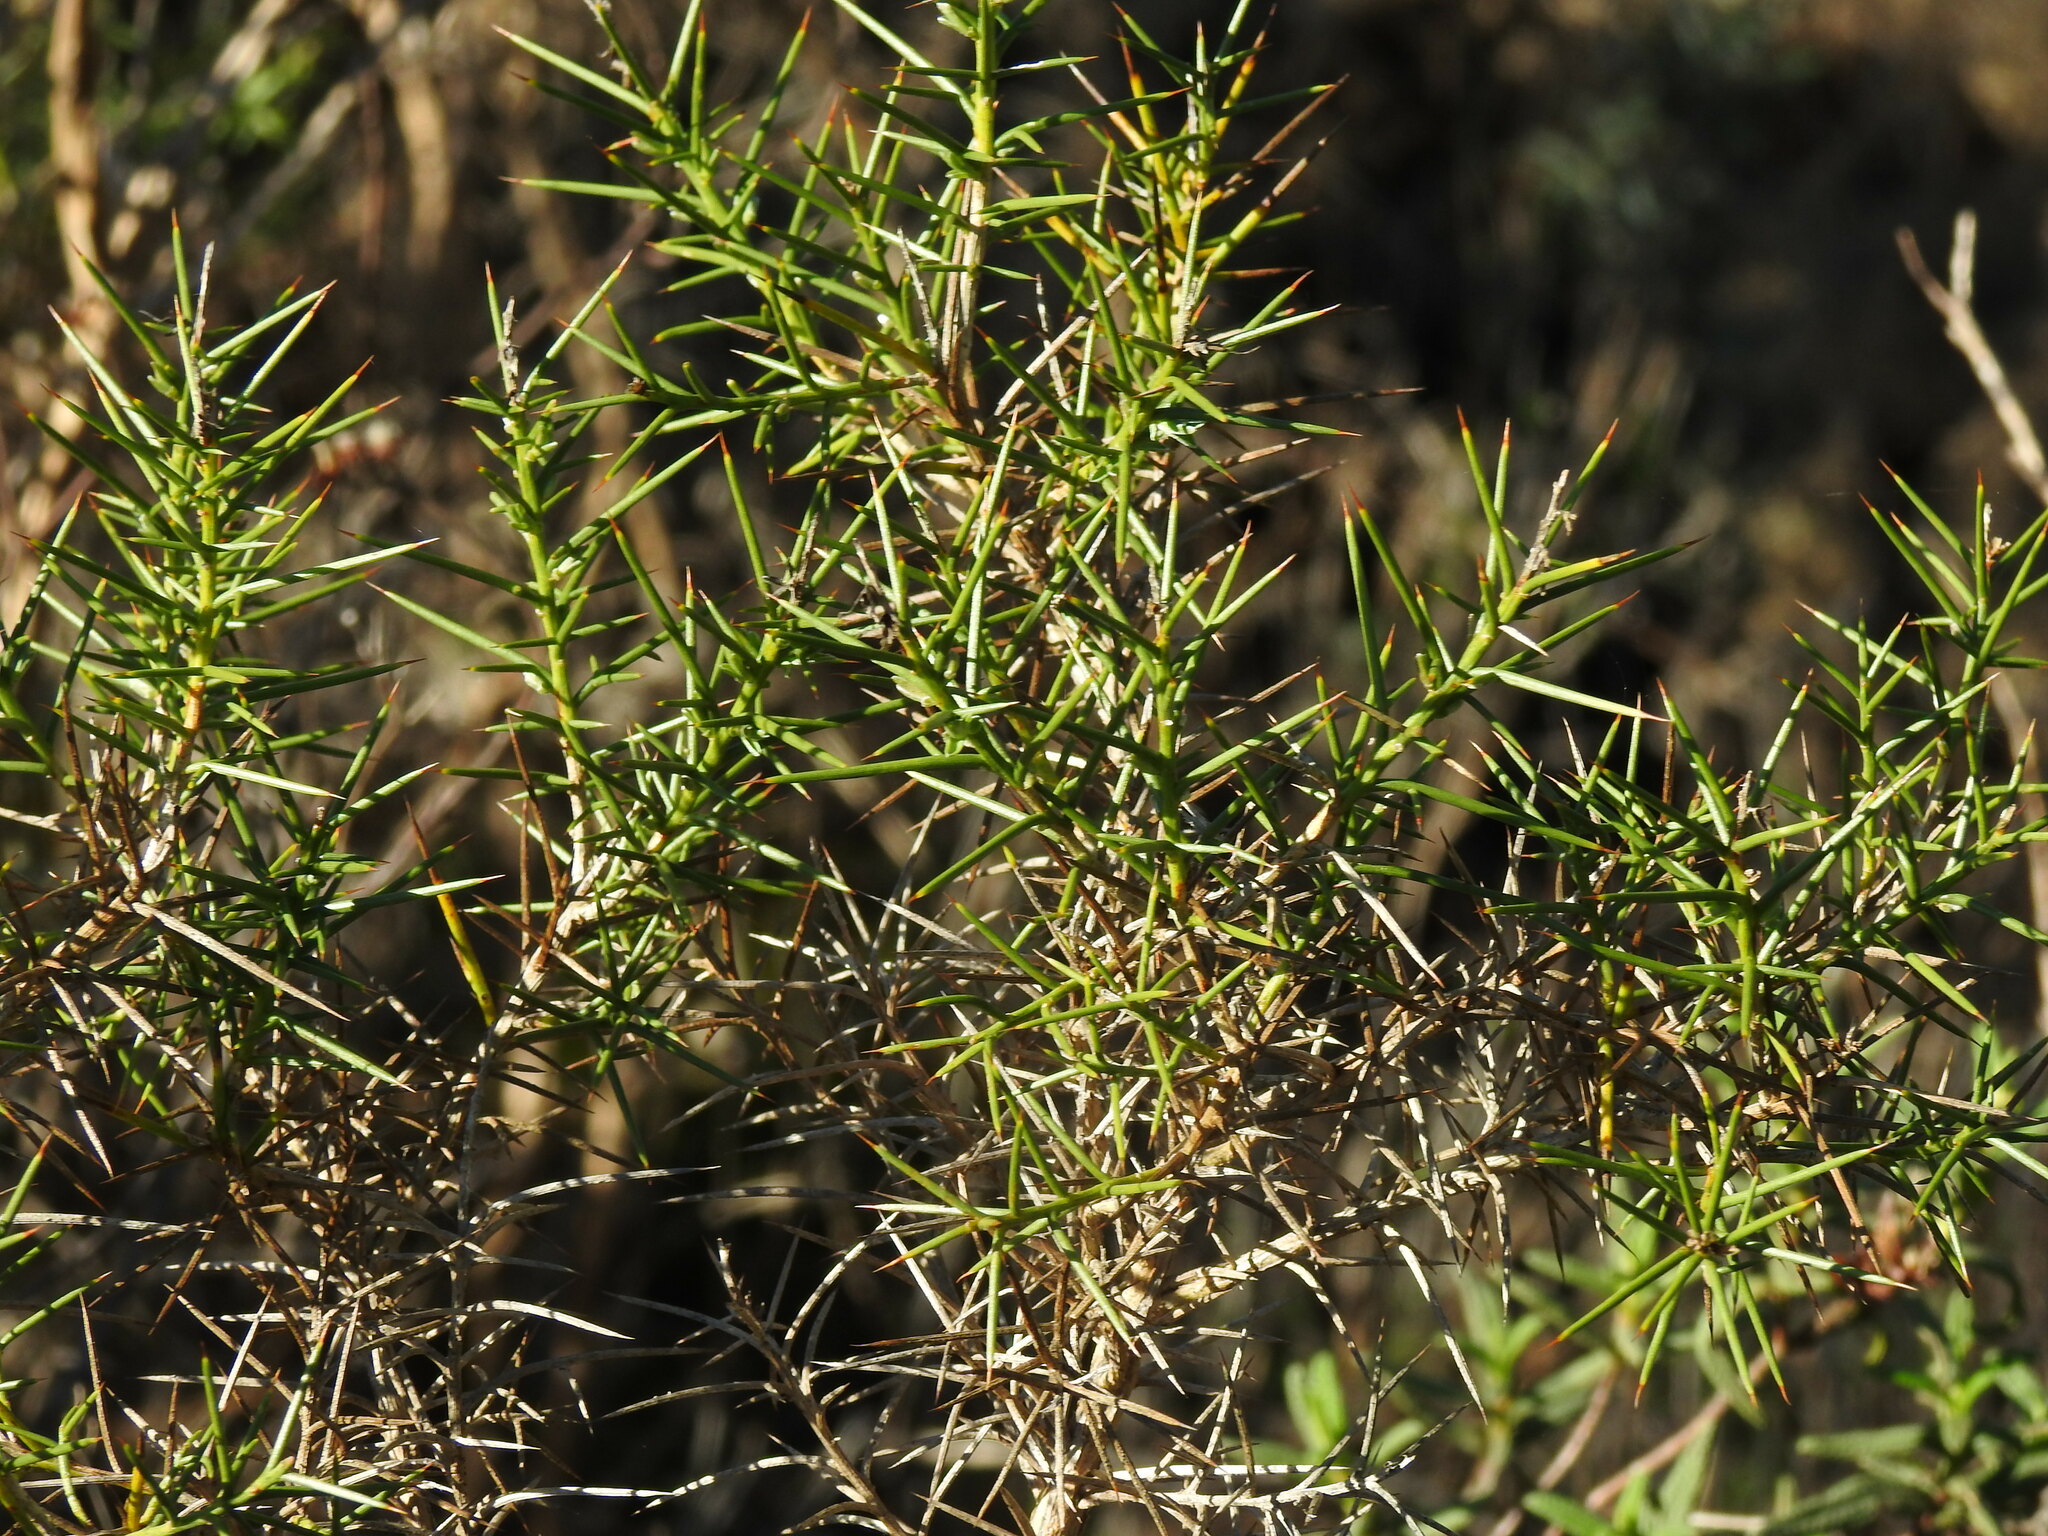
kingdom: Plantae
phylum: Tracheophyta
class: Magnoliopsida
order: Fabales
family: Fabaceae
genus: Genista
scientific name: Genista hirsuta
